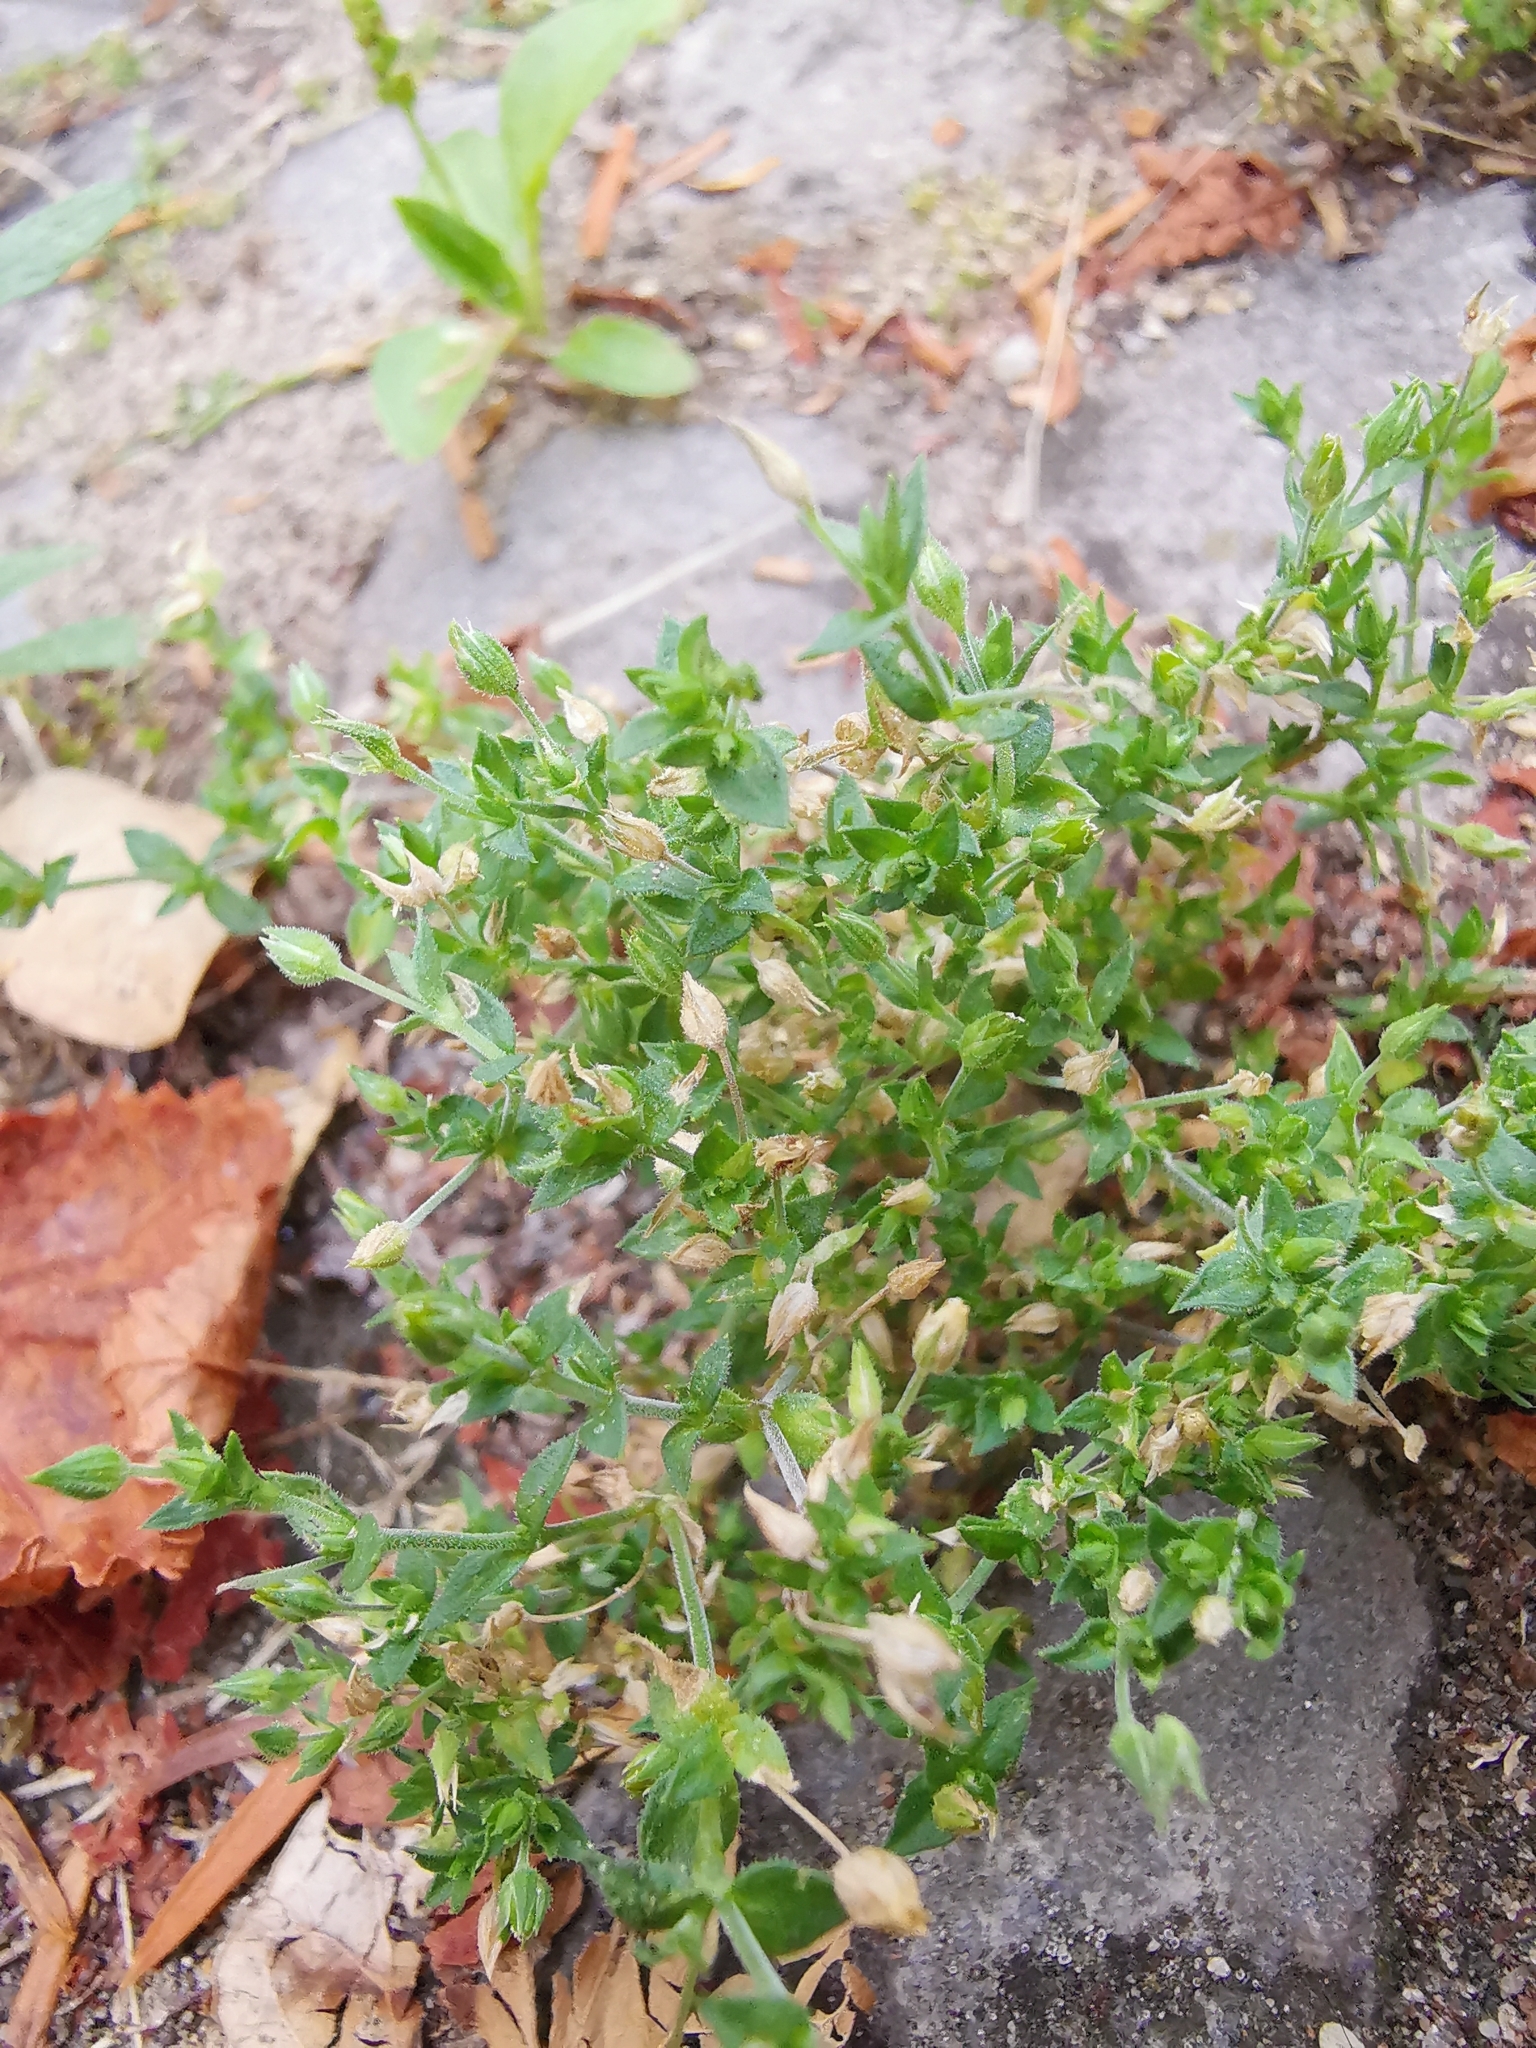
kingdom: Plantae
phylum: Tracheophyta
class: Magnoliopsida
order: Caryophyllales
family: Caryophyllaceae
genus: Arenaria
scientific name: Arenaria serpyllifolia
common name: Thyme-leaved sandwort
